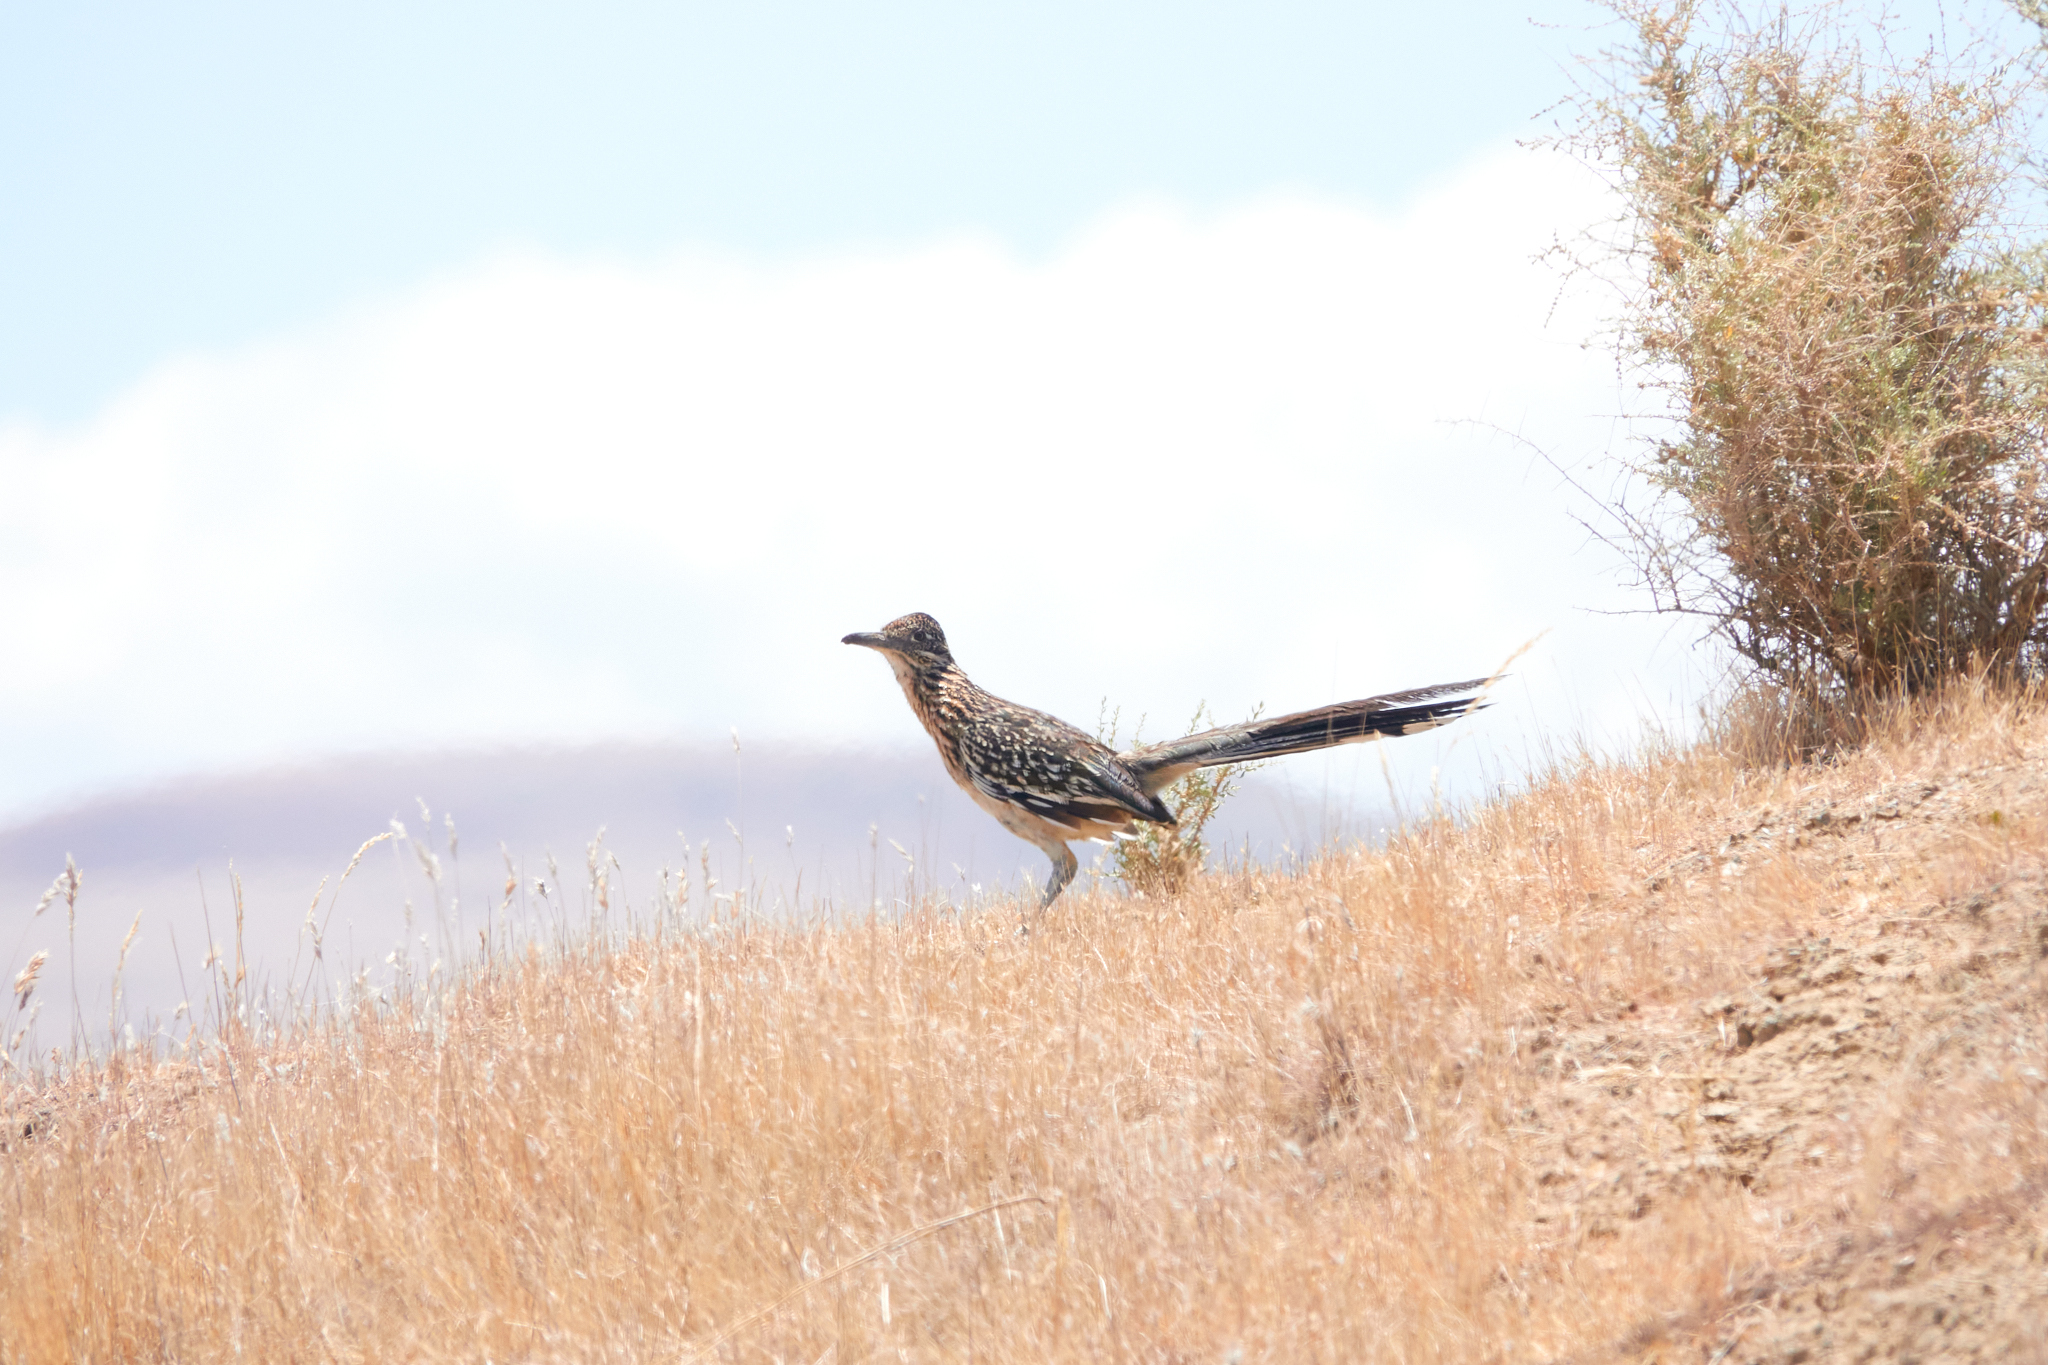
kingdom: Animalia
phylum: Chordata
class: Aves
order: Cuculiformes
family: Cuculidae
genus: Geococcyx
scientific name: Geococcyx californianus
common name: Greater roadrunner
